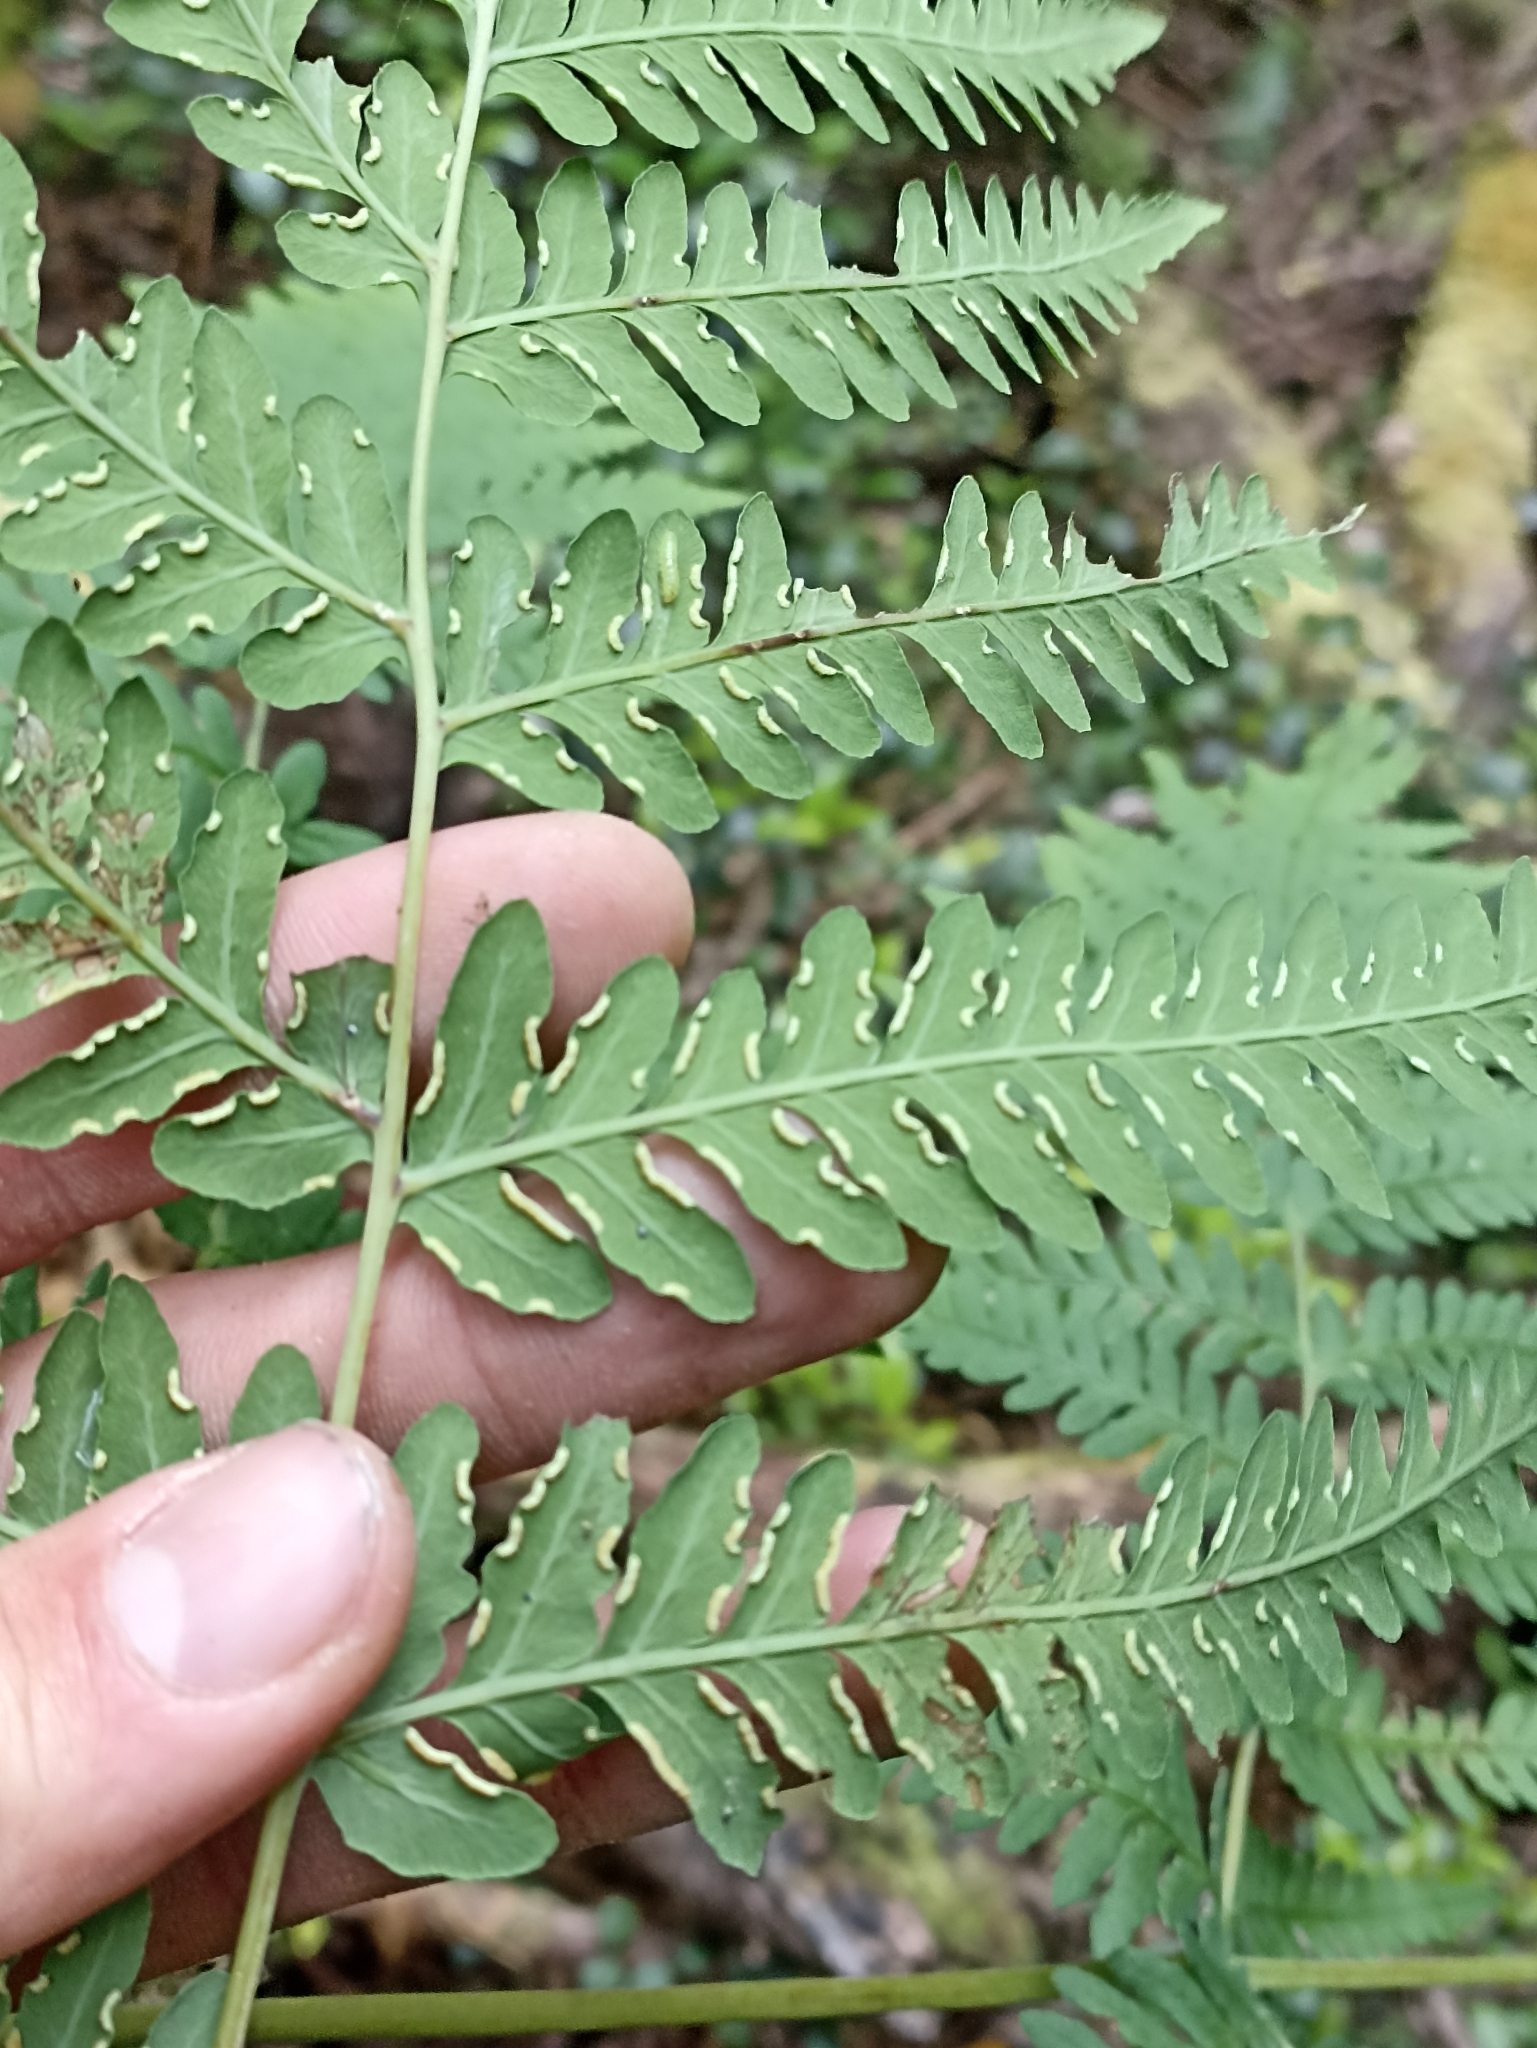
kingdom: Plantae
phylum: Tracheophyta
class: Polypodiopsida
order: Polypodiales
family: Dennstaedtiaceae
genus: Histiopteris
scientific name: Histiopteris incisa
